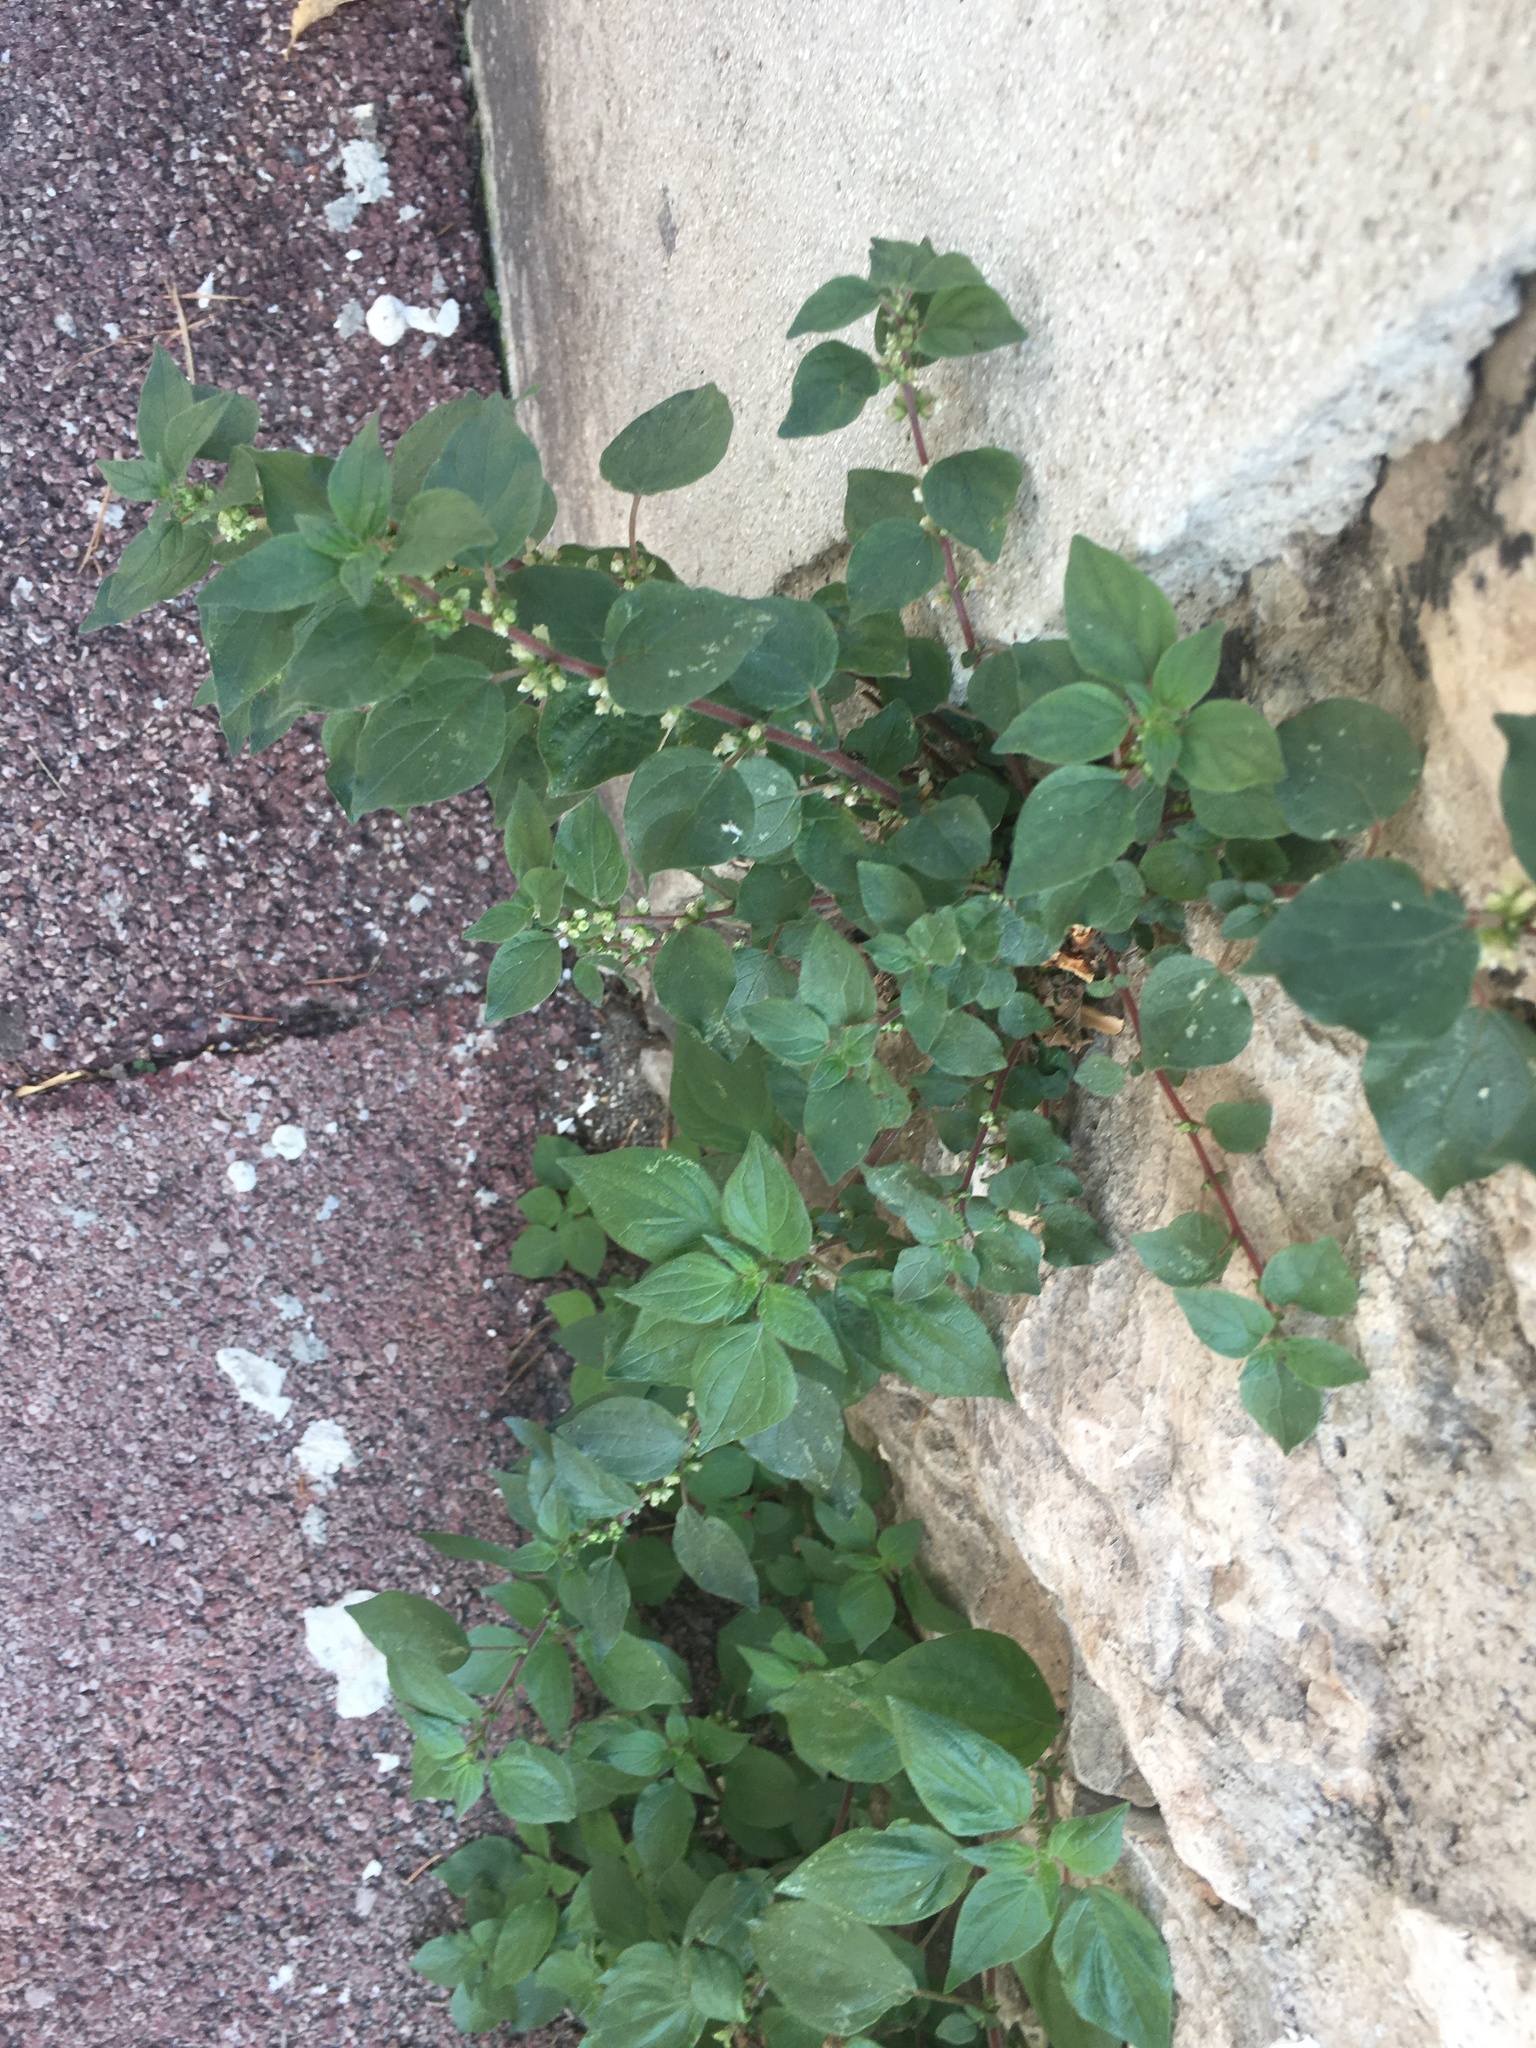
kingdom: Plantae
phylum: Tracheophyta
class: Magnoliopsida
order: Rosales
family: Urticaceae
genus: Parietaria
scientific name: Parietaria judaica
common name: Pellitory-of-the-wall
